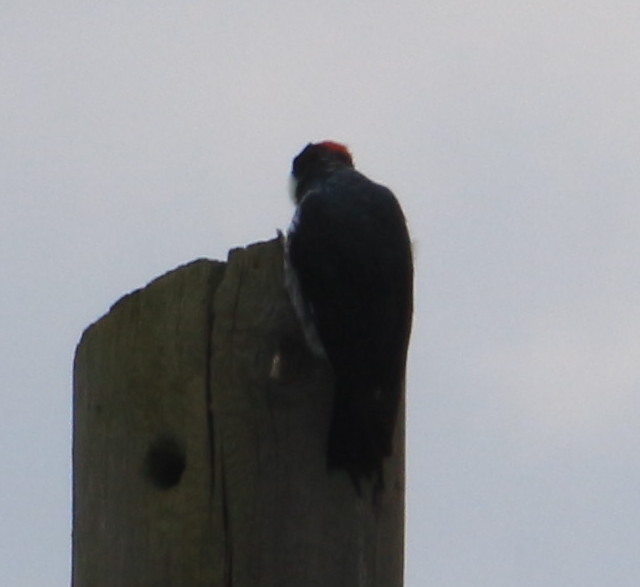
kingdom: Animalia
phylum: Chordata
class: Aves
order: Piciformes
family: Picidae
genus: Melanerpes
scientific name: Melanerpes formicivorus
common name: Acorn woodpecker
